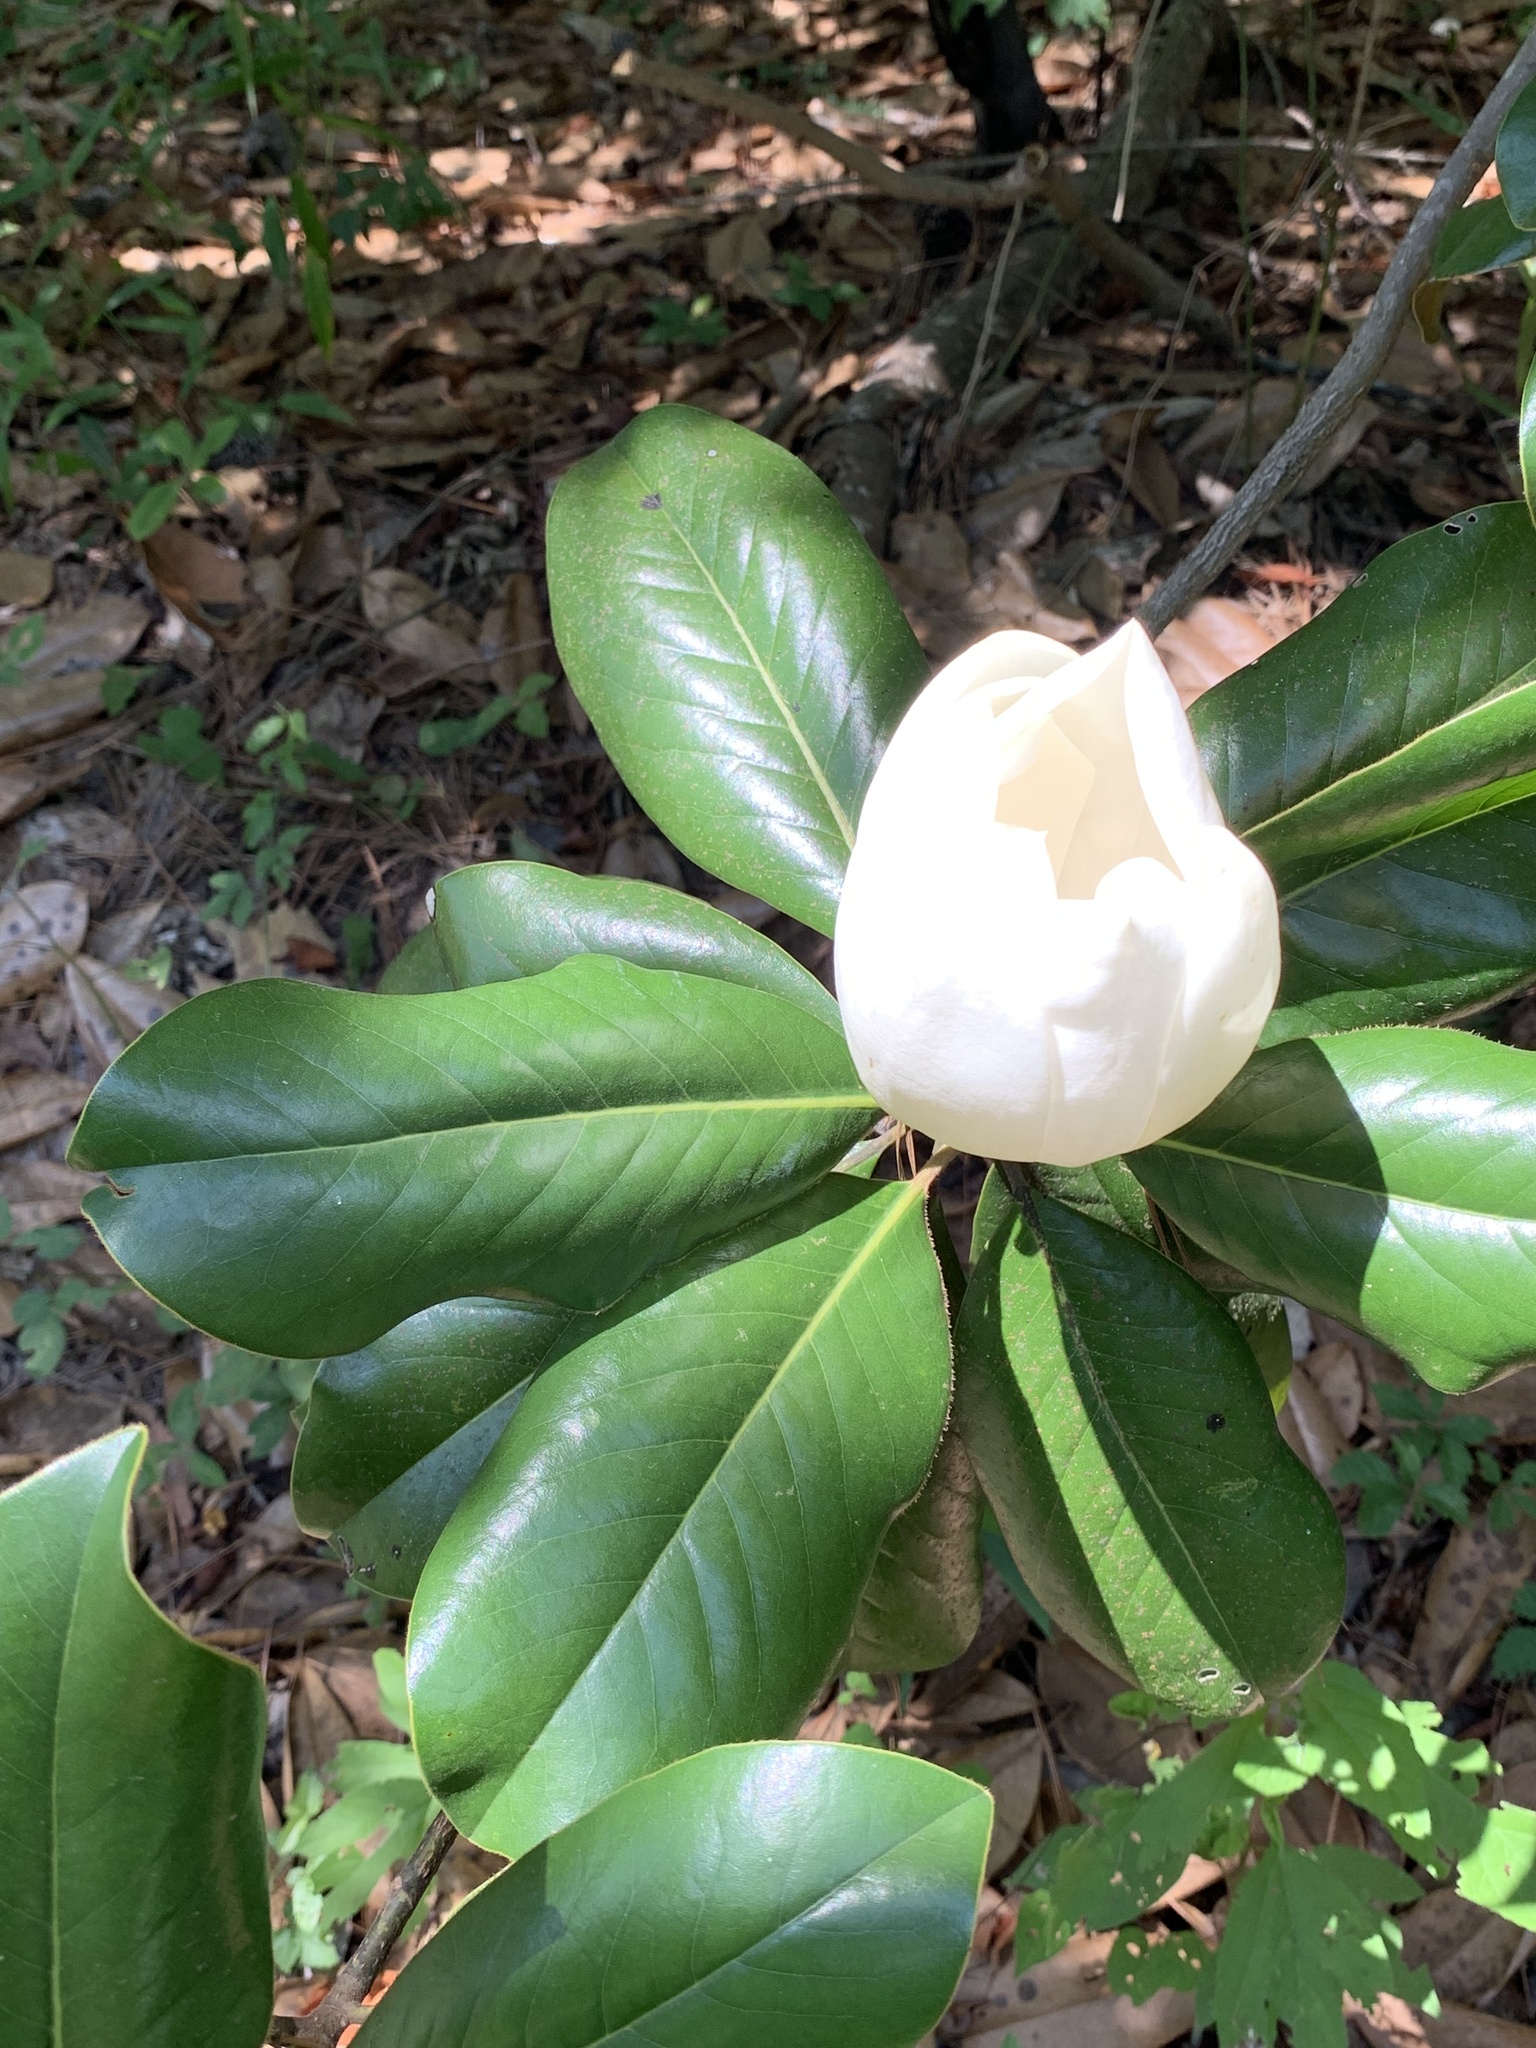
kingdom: Plantae
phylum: Tracheophyta
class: Magnoliopsida
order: Magnoliales
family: Magnoliaceae
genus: Magnolia
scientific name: Magnolia grandiflora
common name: Southern magnolia
